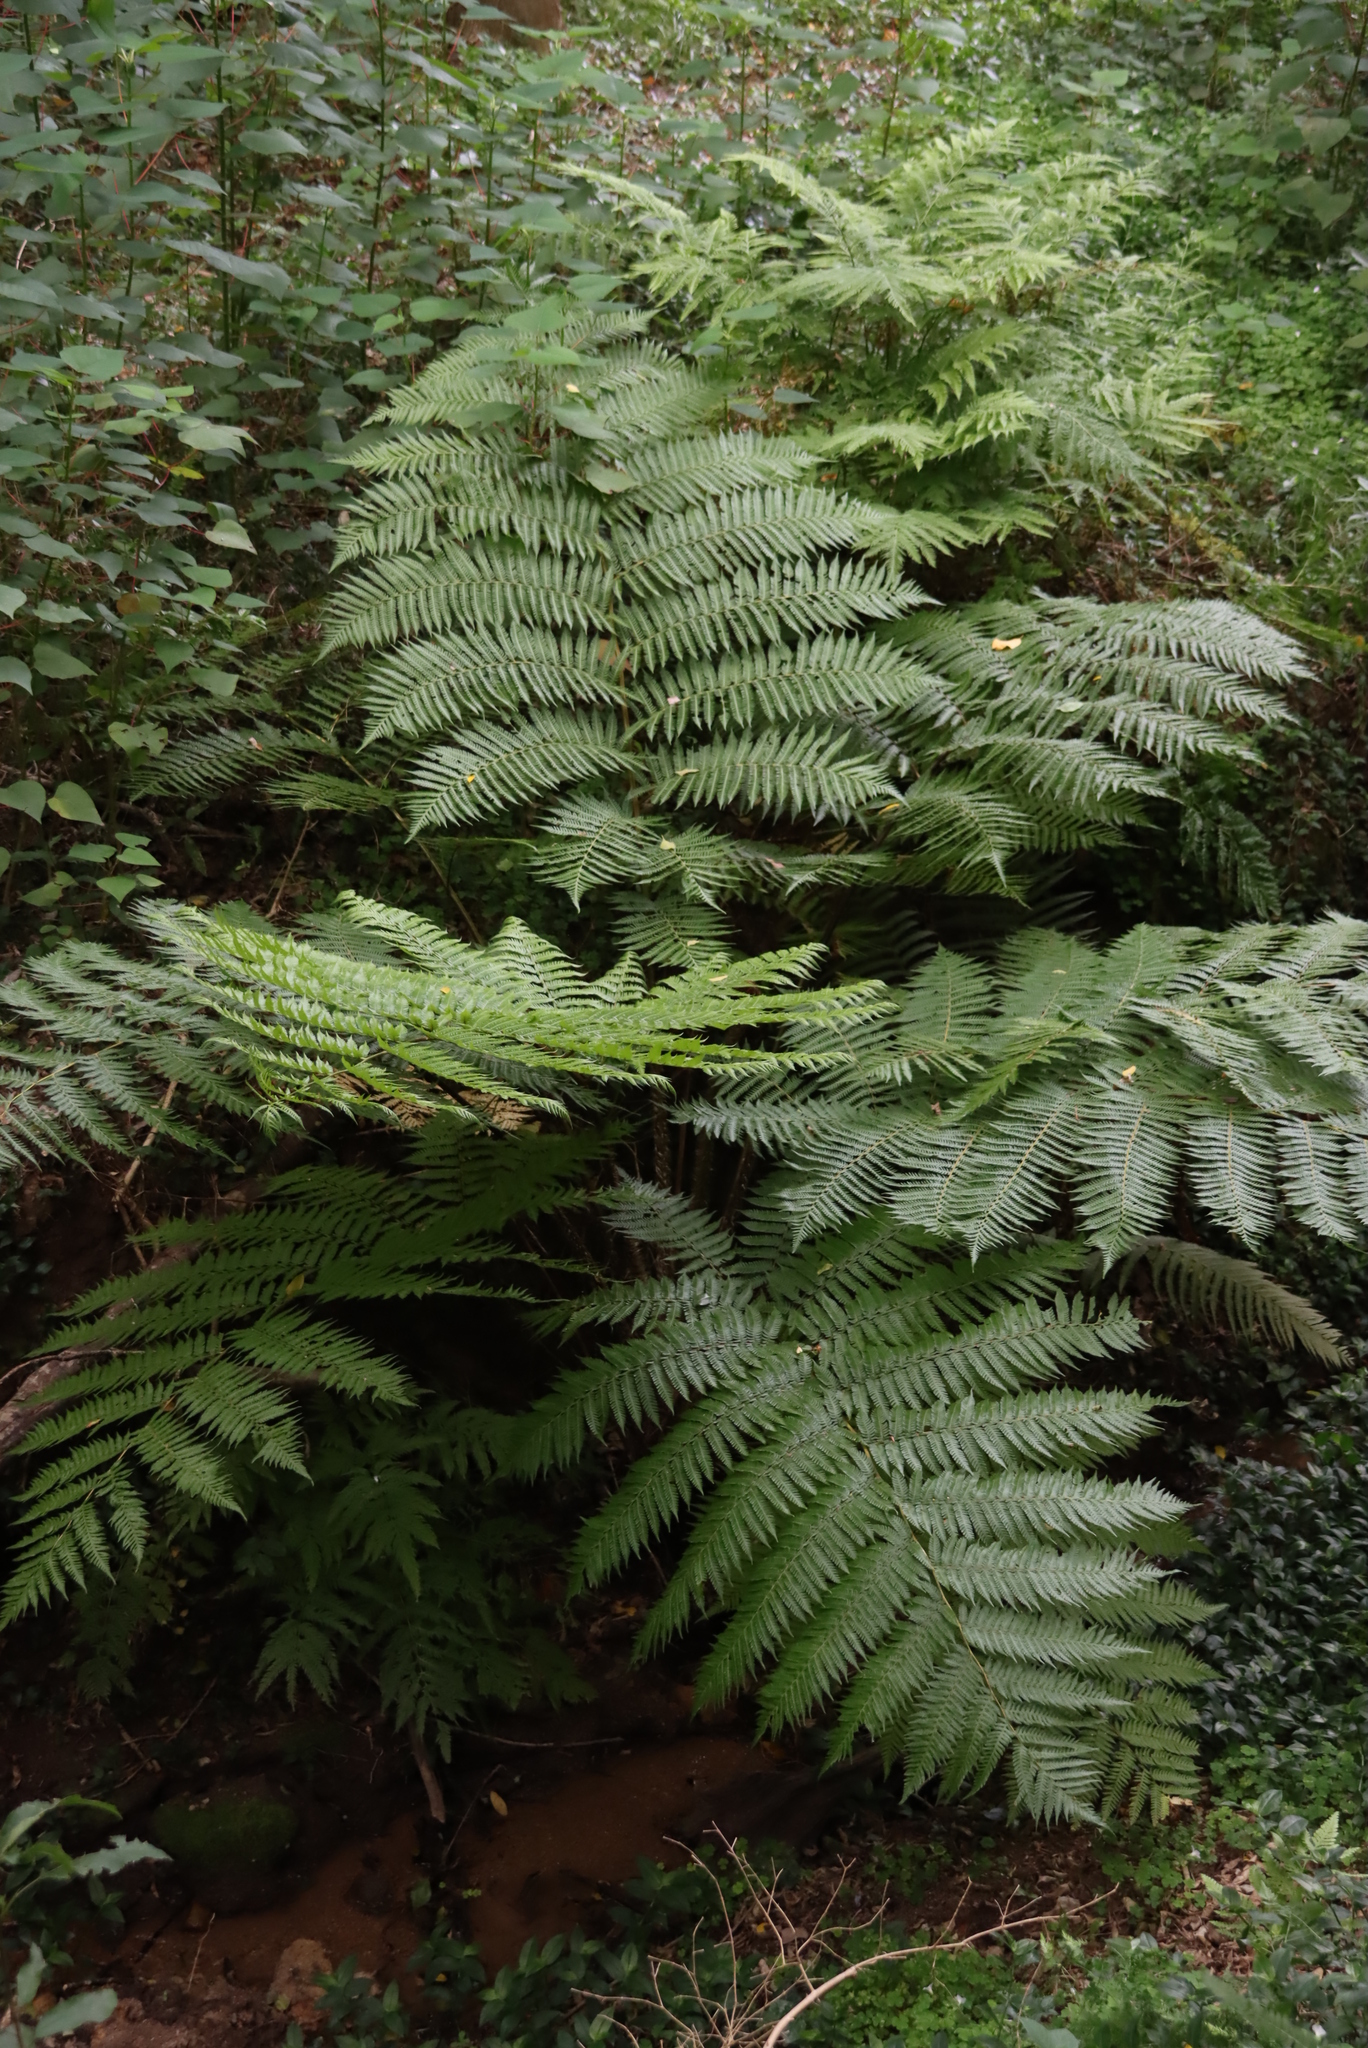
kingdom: Plantae
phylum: Tracheophyta
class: Polypodiopsida
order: Cyatheales
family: Cyatheaceae
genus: Sphaeropteris
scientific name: Sphaeropteris cooperi
